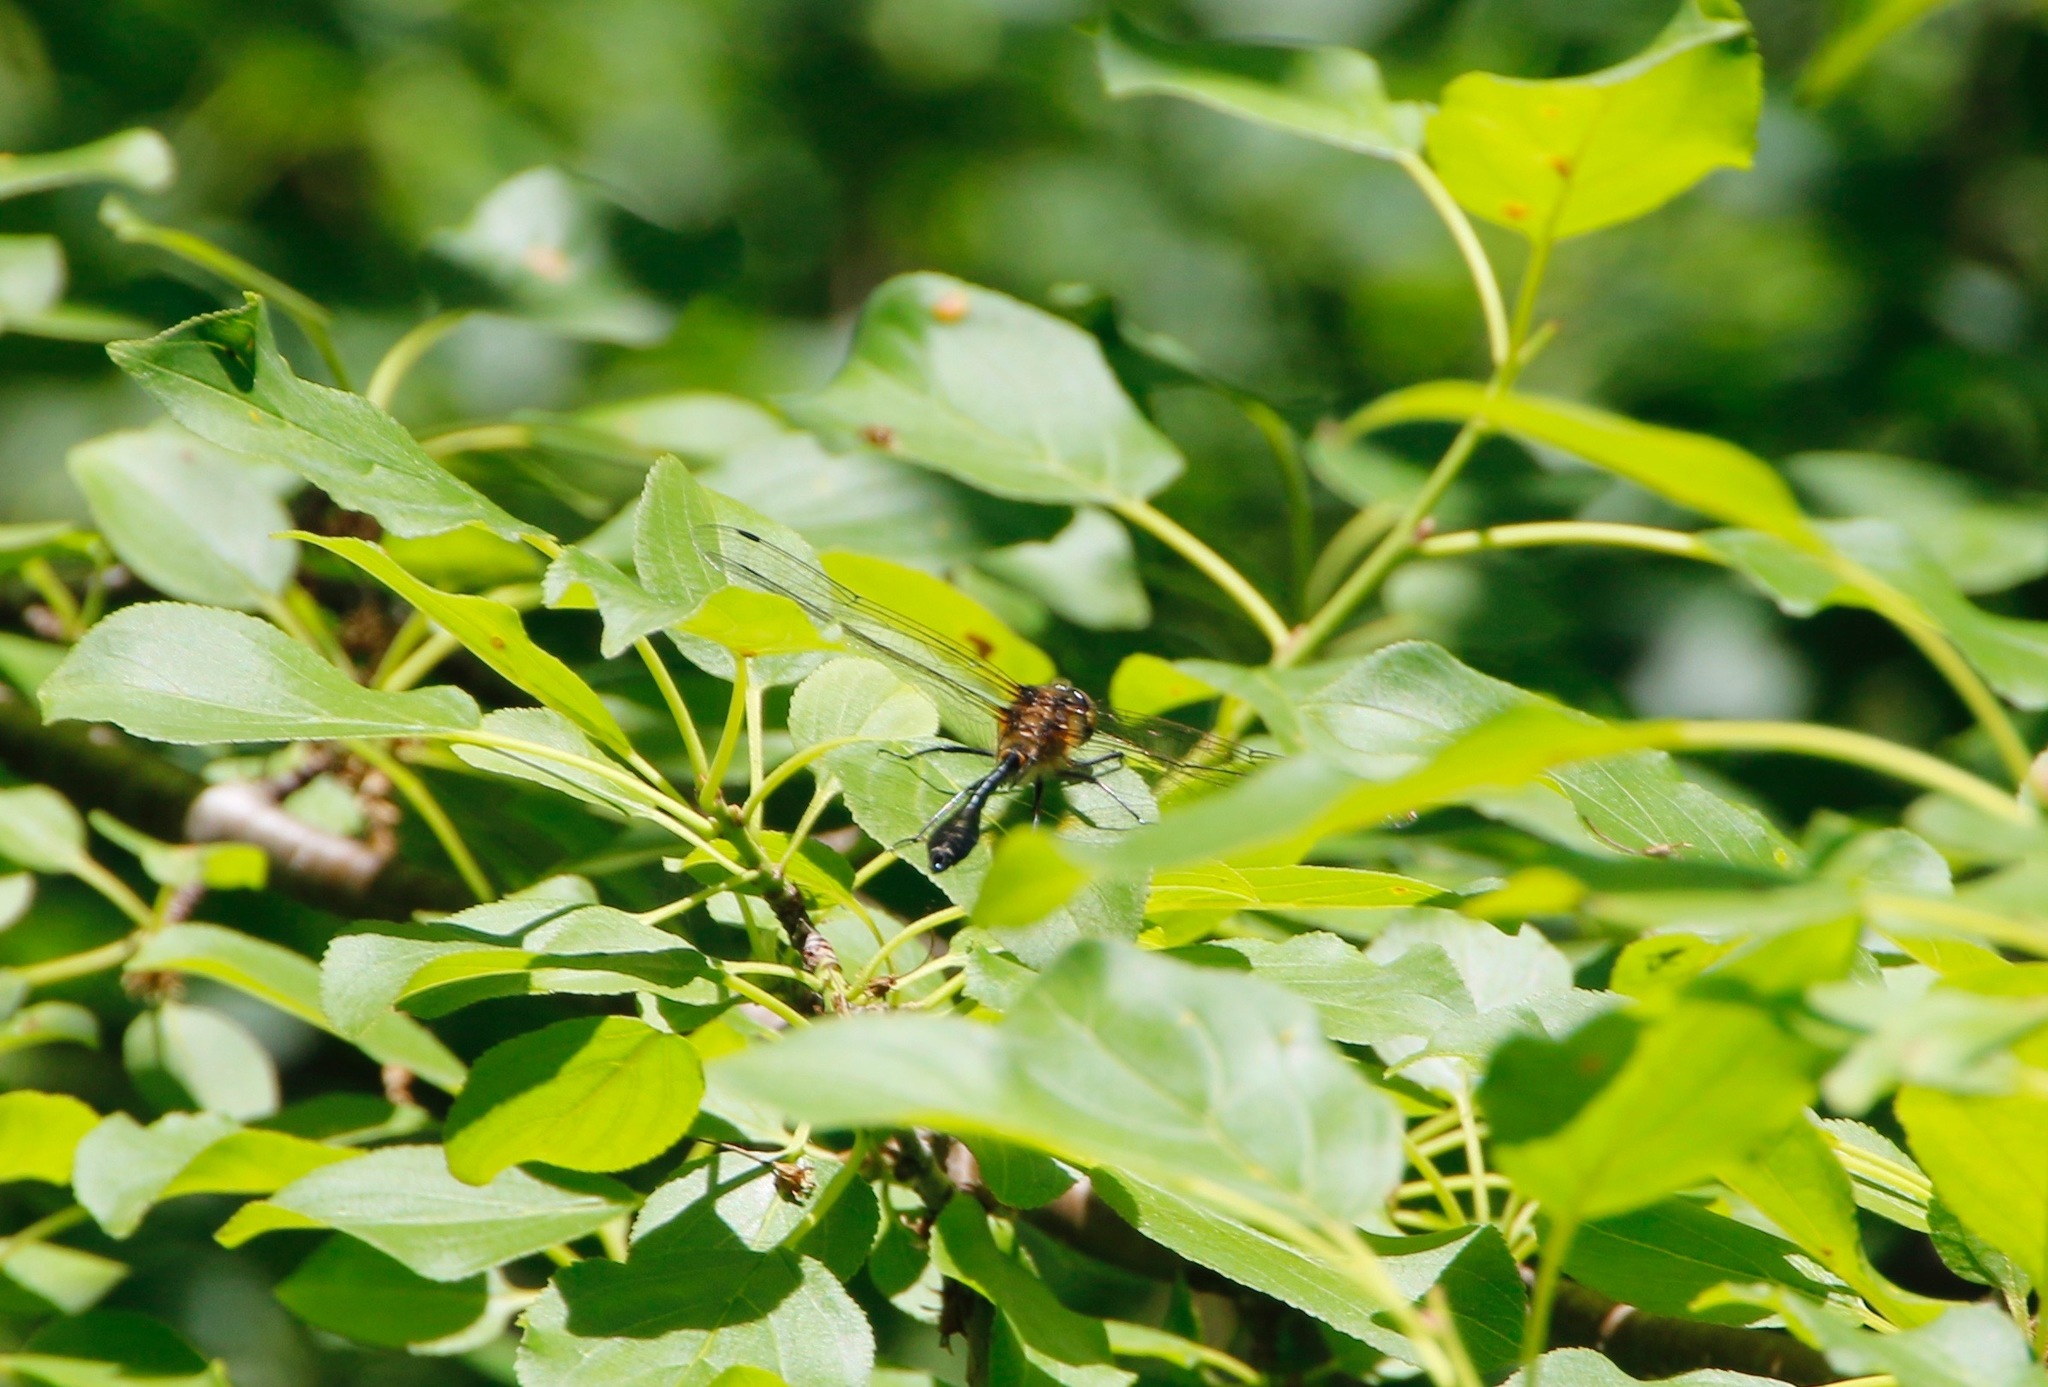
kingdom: Animalia
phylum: Arthropoda
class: Insecta
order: Odonata
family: Corduliidae
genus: Dorocordulia
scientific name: Dorocordulia libera
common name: Racket-tailed emerald
